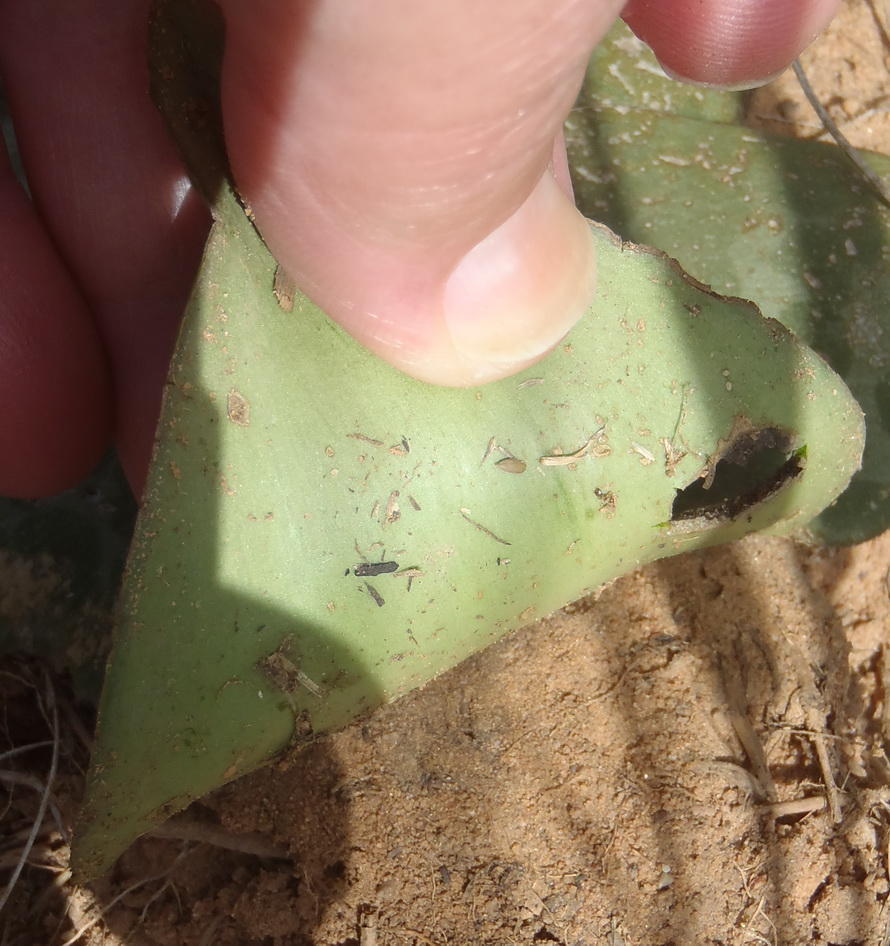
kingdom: Plantae
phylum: Tracheophyta
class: Liliopsida
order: Asparagales
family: Asparagaceae
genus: Ledebouria
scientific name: Ledebouria ovatifolia
